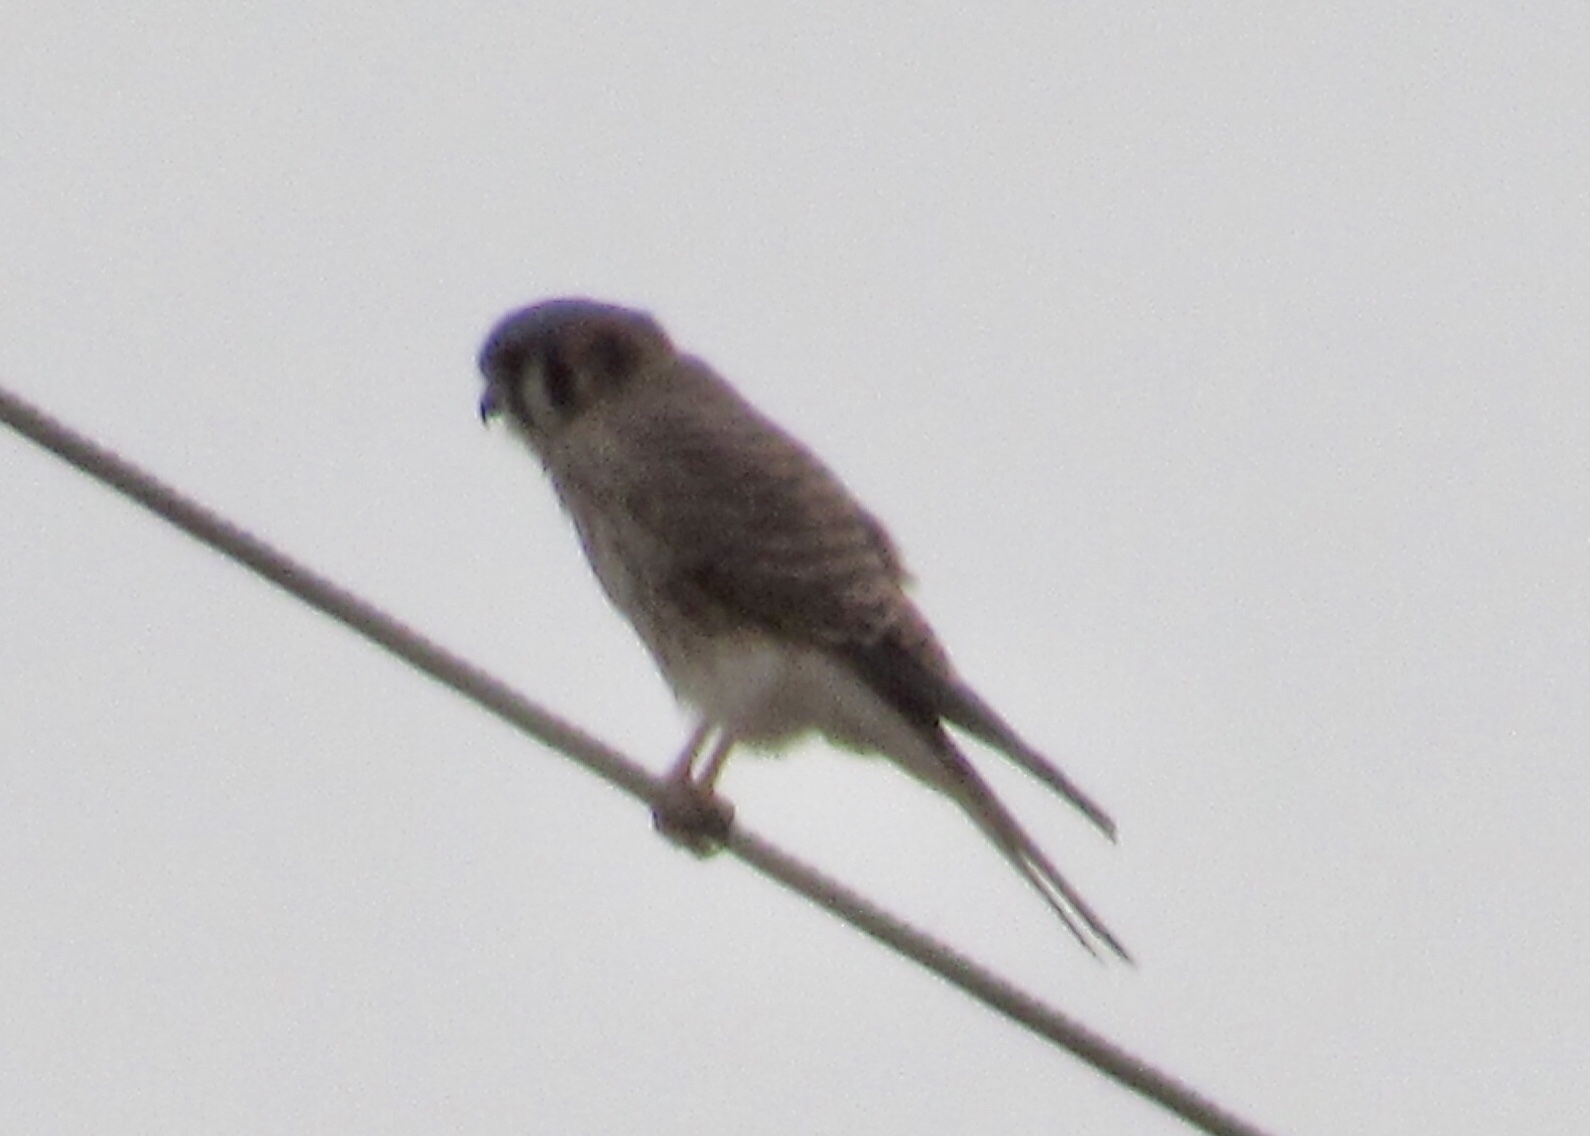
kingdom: Animalia
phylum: Chordata
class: Aves
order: Falconiformes
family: Falconidae
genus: Falco
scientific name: Falco sparverius
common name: American kestrel
